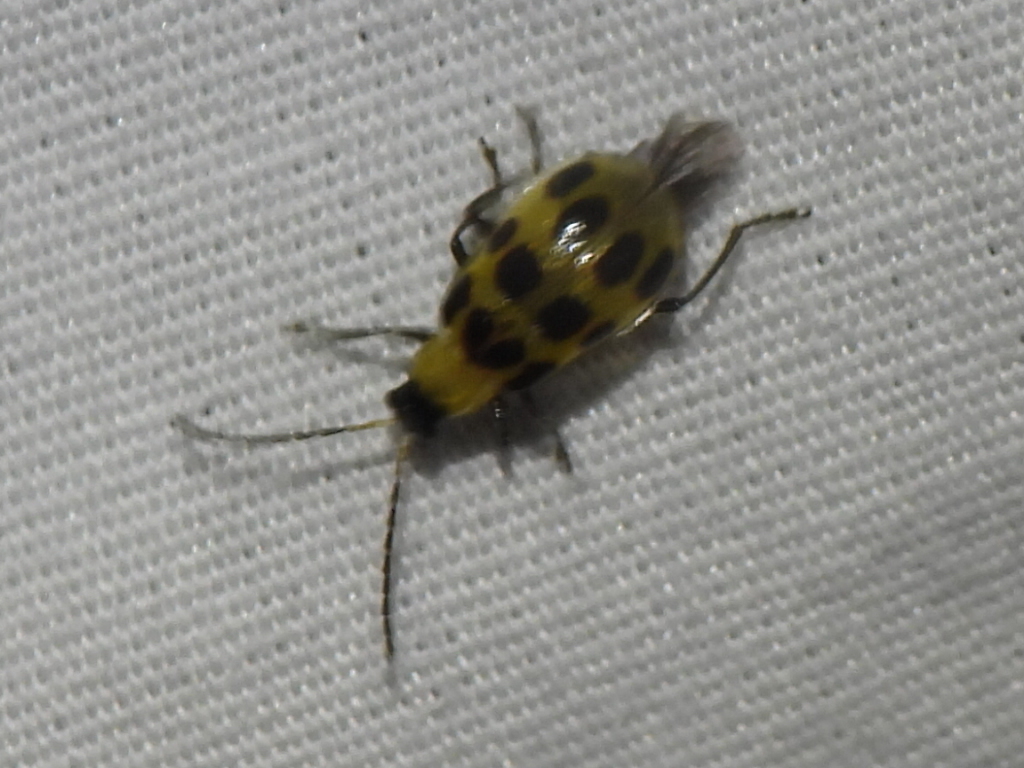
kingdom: Animalia
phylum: Arthropoda
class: Insecta
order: Coleoptera
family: Chrysomelidae
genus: Diabrotica
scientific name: Diabrotica undecimpunctata
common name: Spotted cucumber beetle
